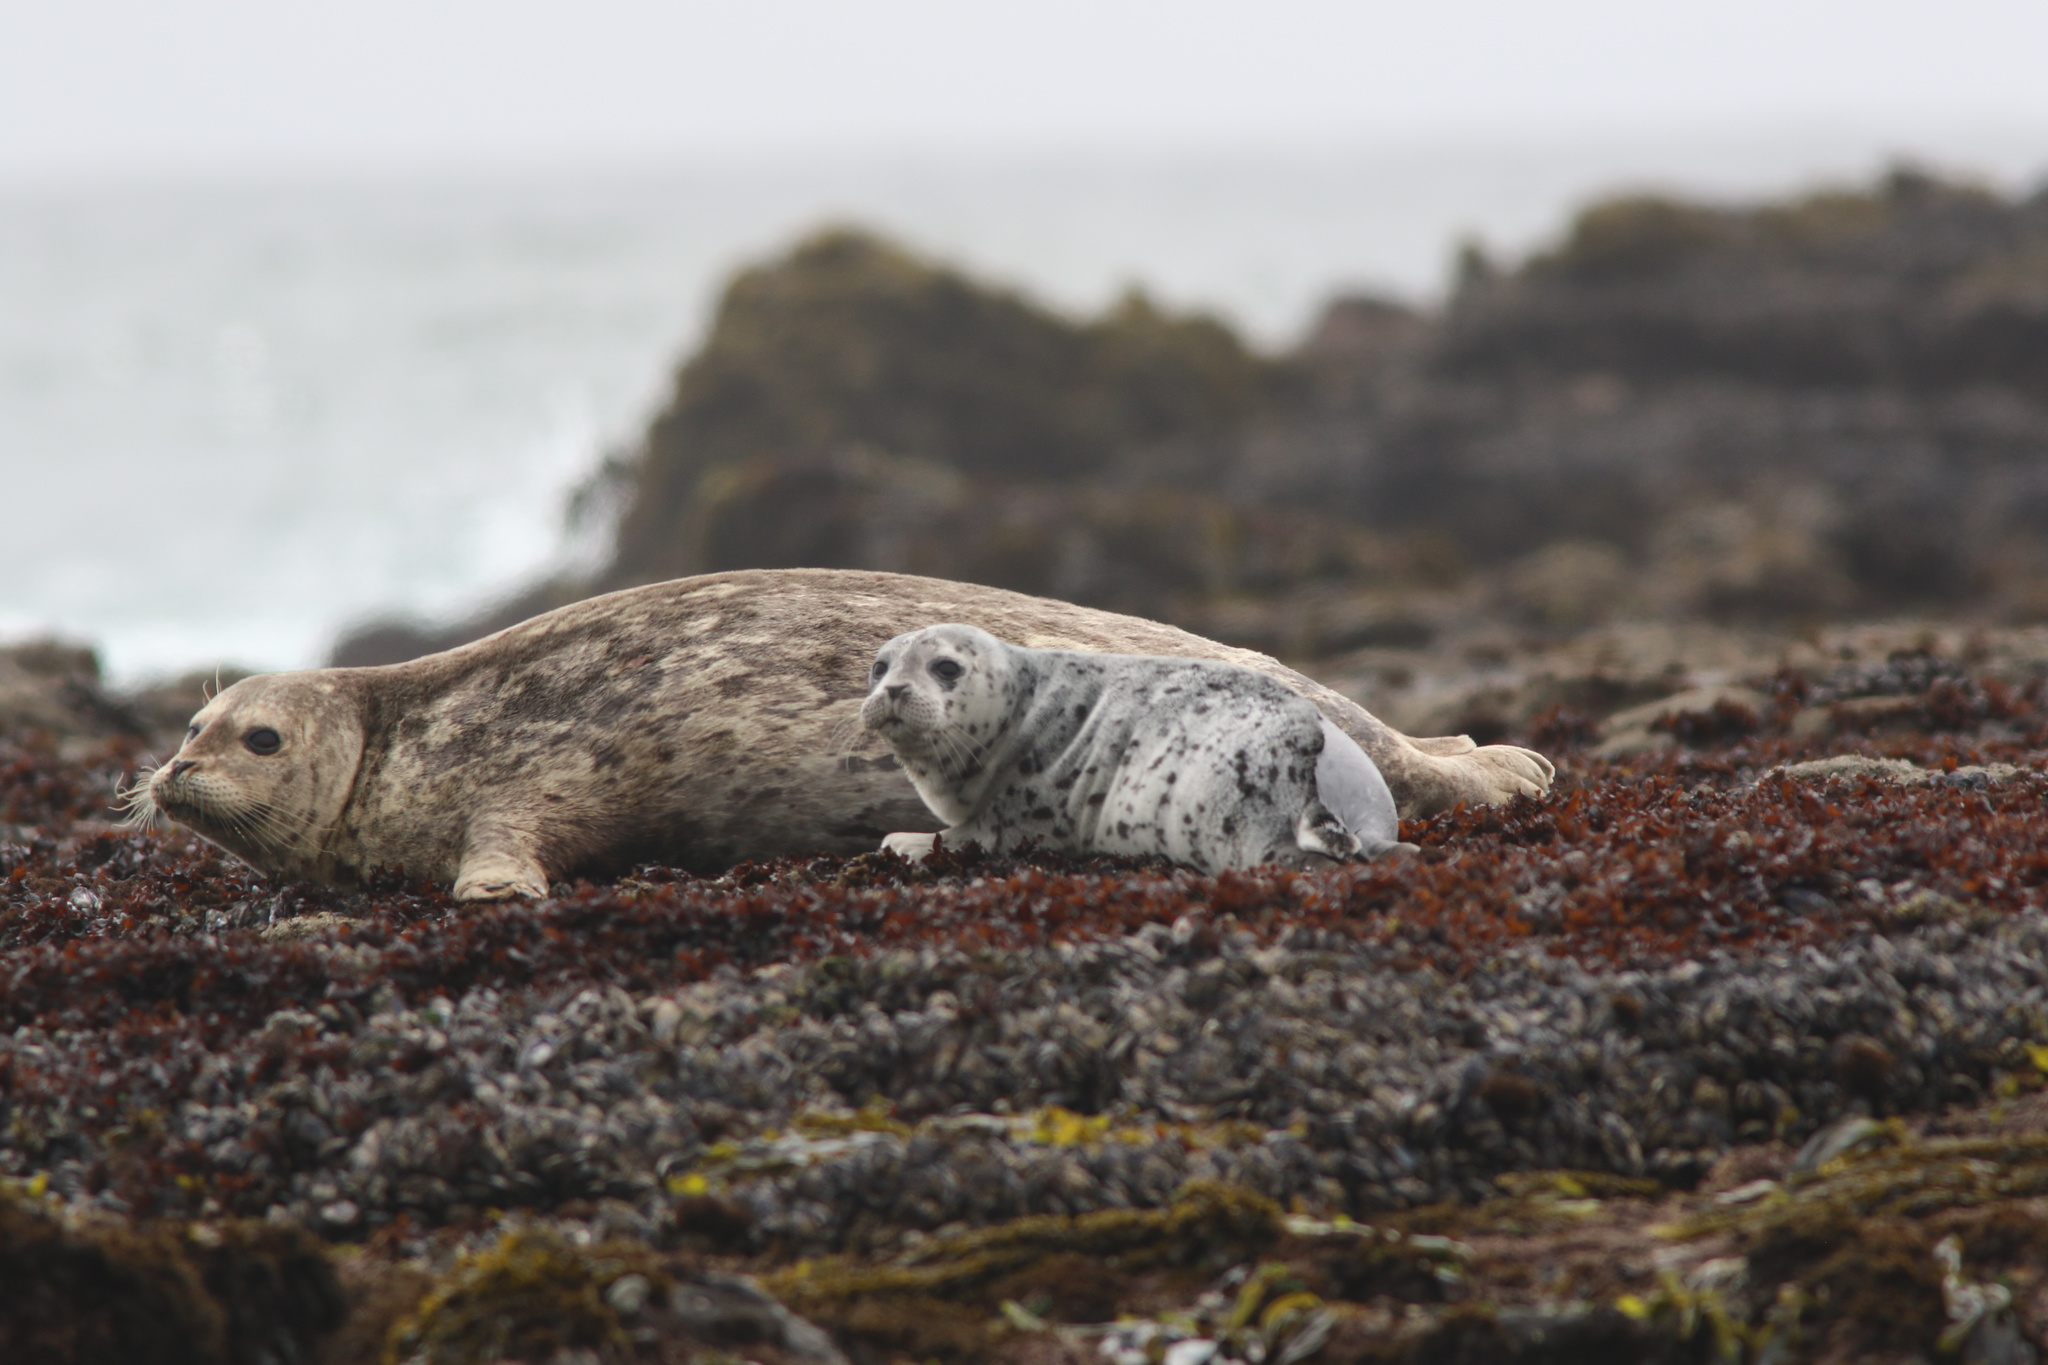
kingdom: Animalia
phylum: Chordata
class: Mammalia
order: Carnivora
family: Phocidae
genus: Phoca
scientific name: Phoca vitulina
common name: Harbor seal
